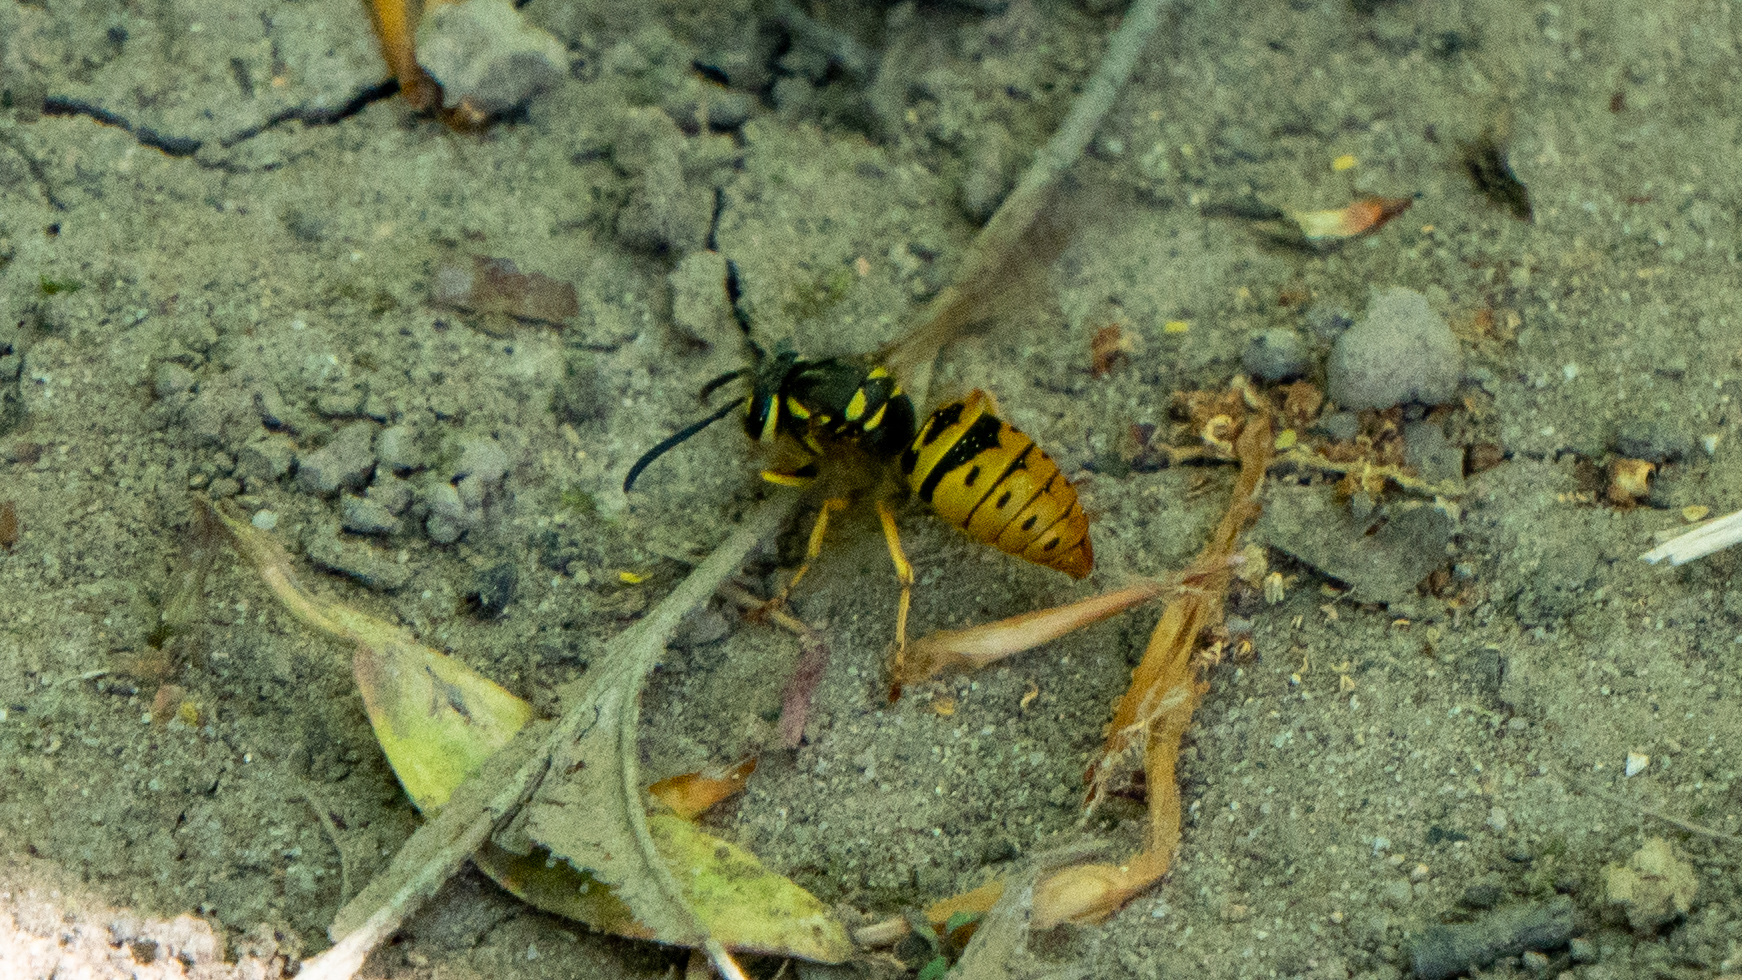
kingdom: Animalia
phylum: Arthropoda
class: Insecta
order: Hymenoptera
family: Vespidae
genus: Vespula
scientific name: Vespula maculifrons
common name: Eastern yellowjacket
